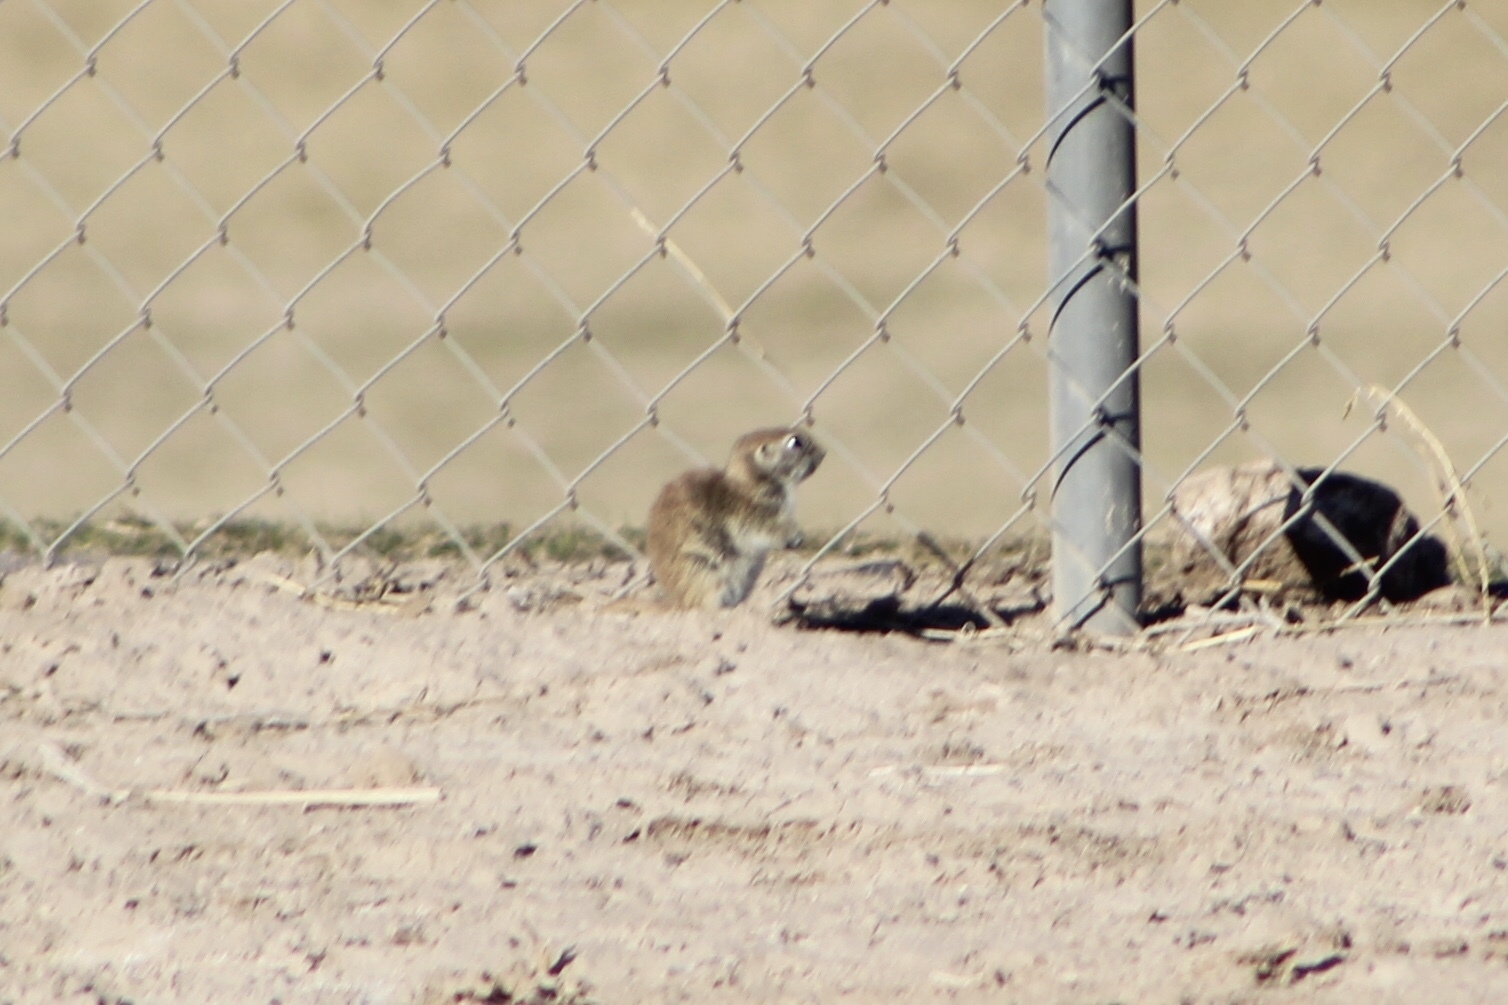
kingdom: Animalia
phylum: Chordata
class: Mammalia
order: Rodentia
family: Sciuridae
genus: Xerospermophilus
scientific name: Xerospermophilus tereticaudus
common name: Round-tailed ground squirrel
